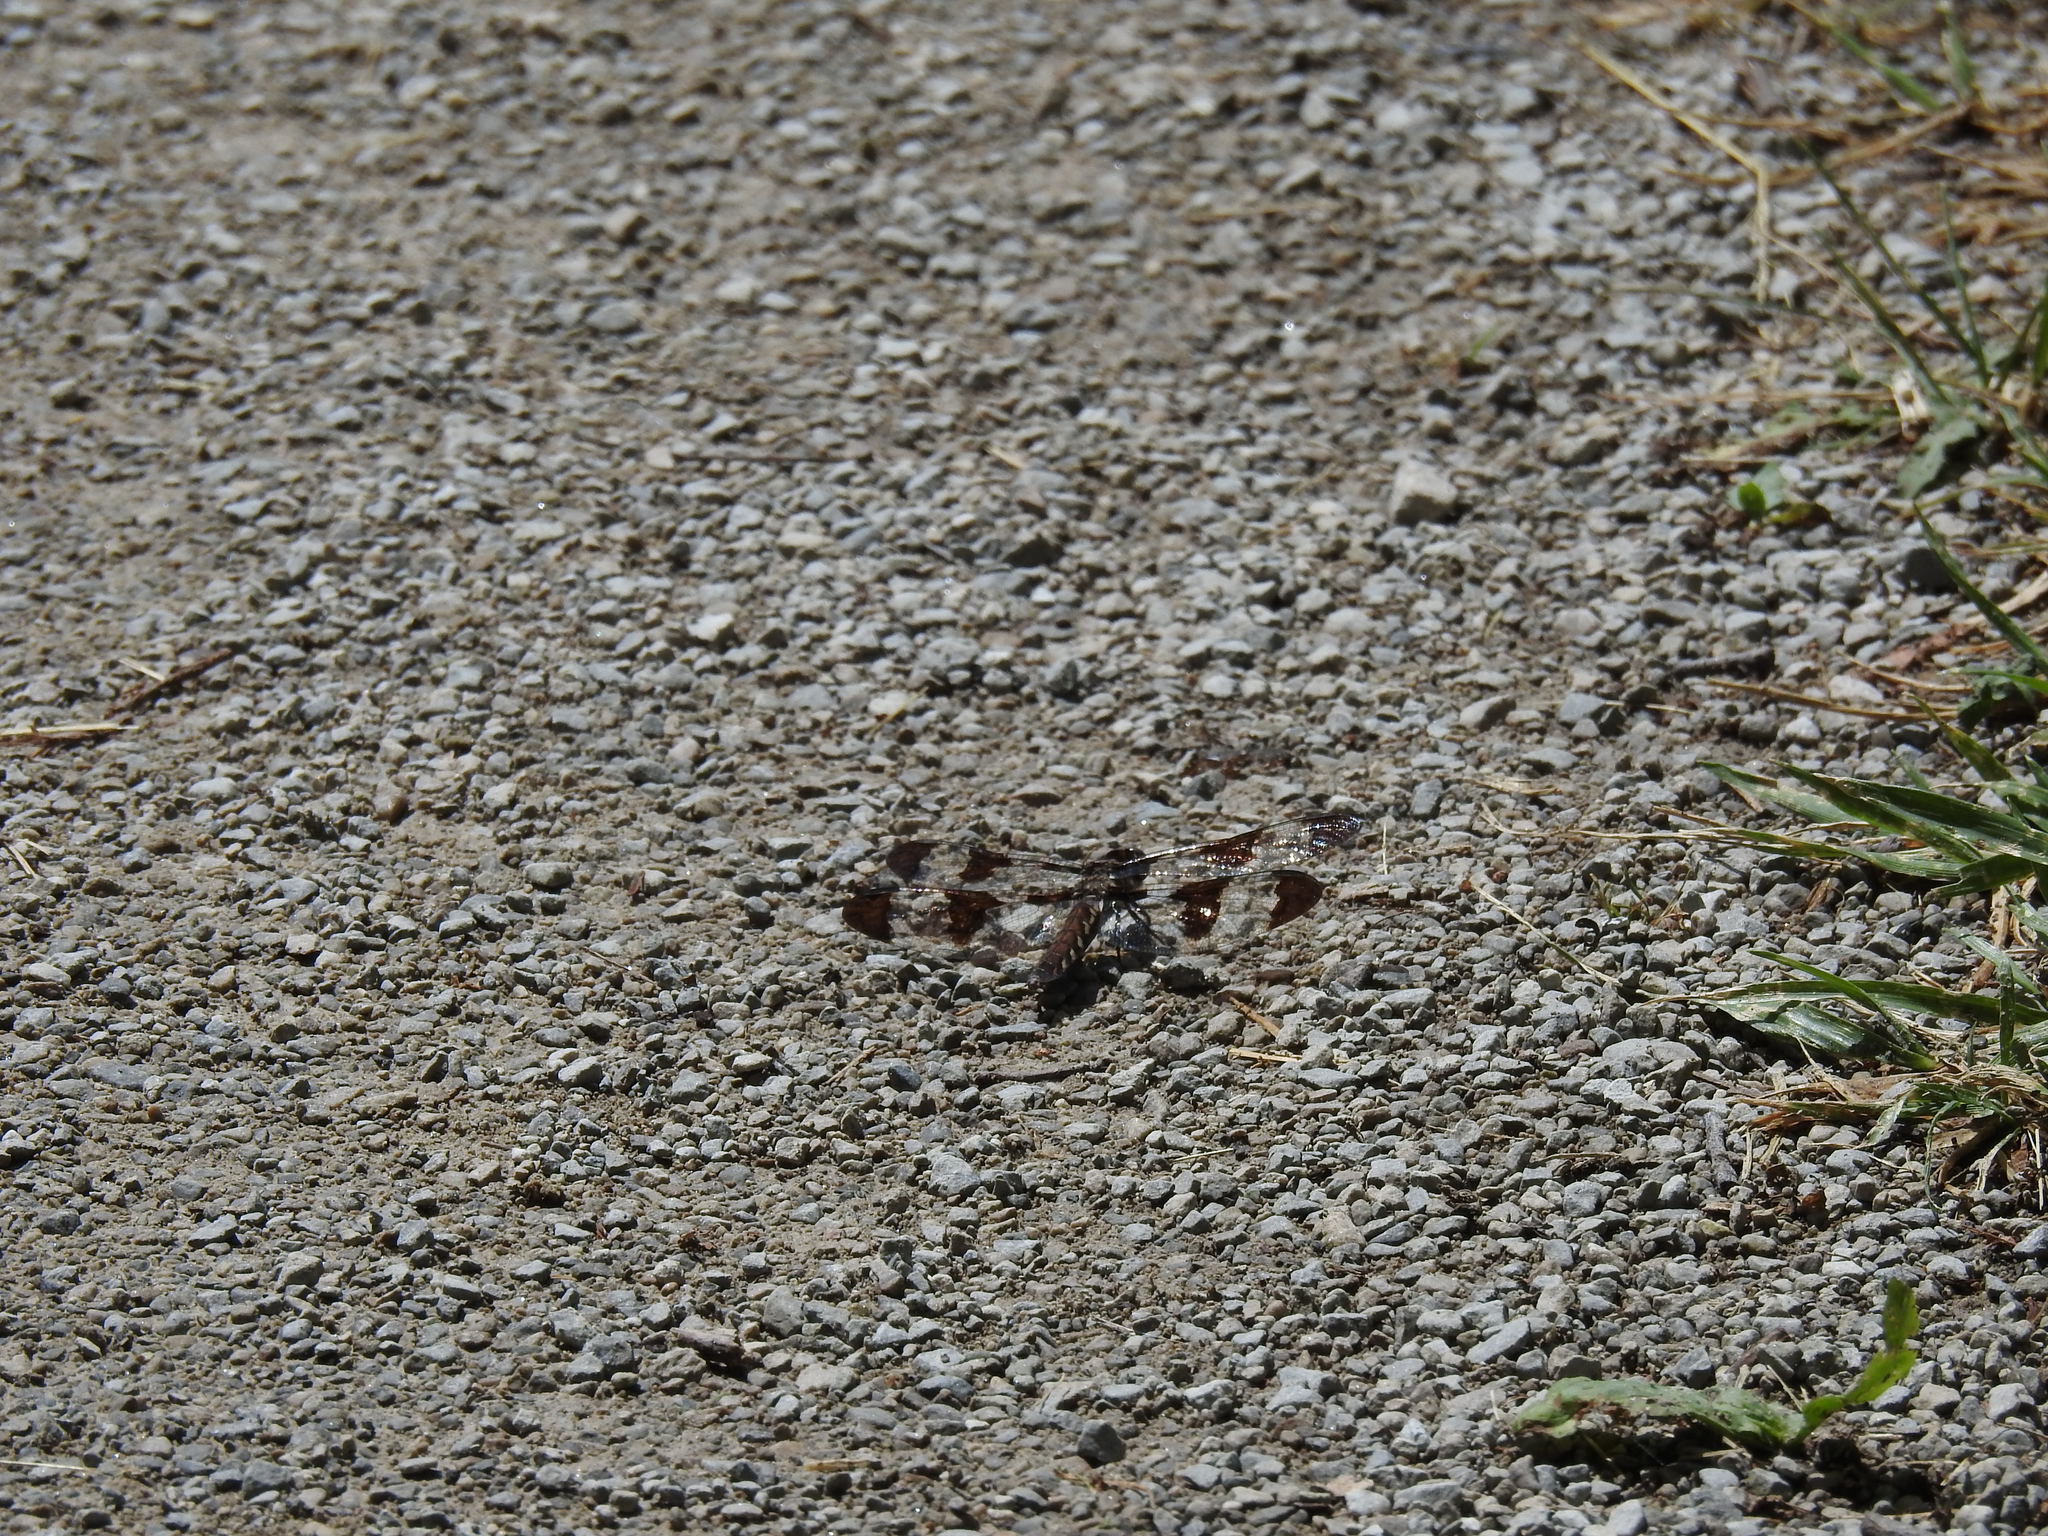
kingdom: Animalia
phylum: Arthropoda
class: Insecta
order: Odonata
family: Libellulidae
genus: Plathemis
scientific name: Plathemis lydia
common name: Common whitetail
